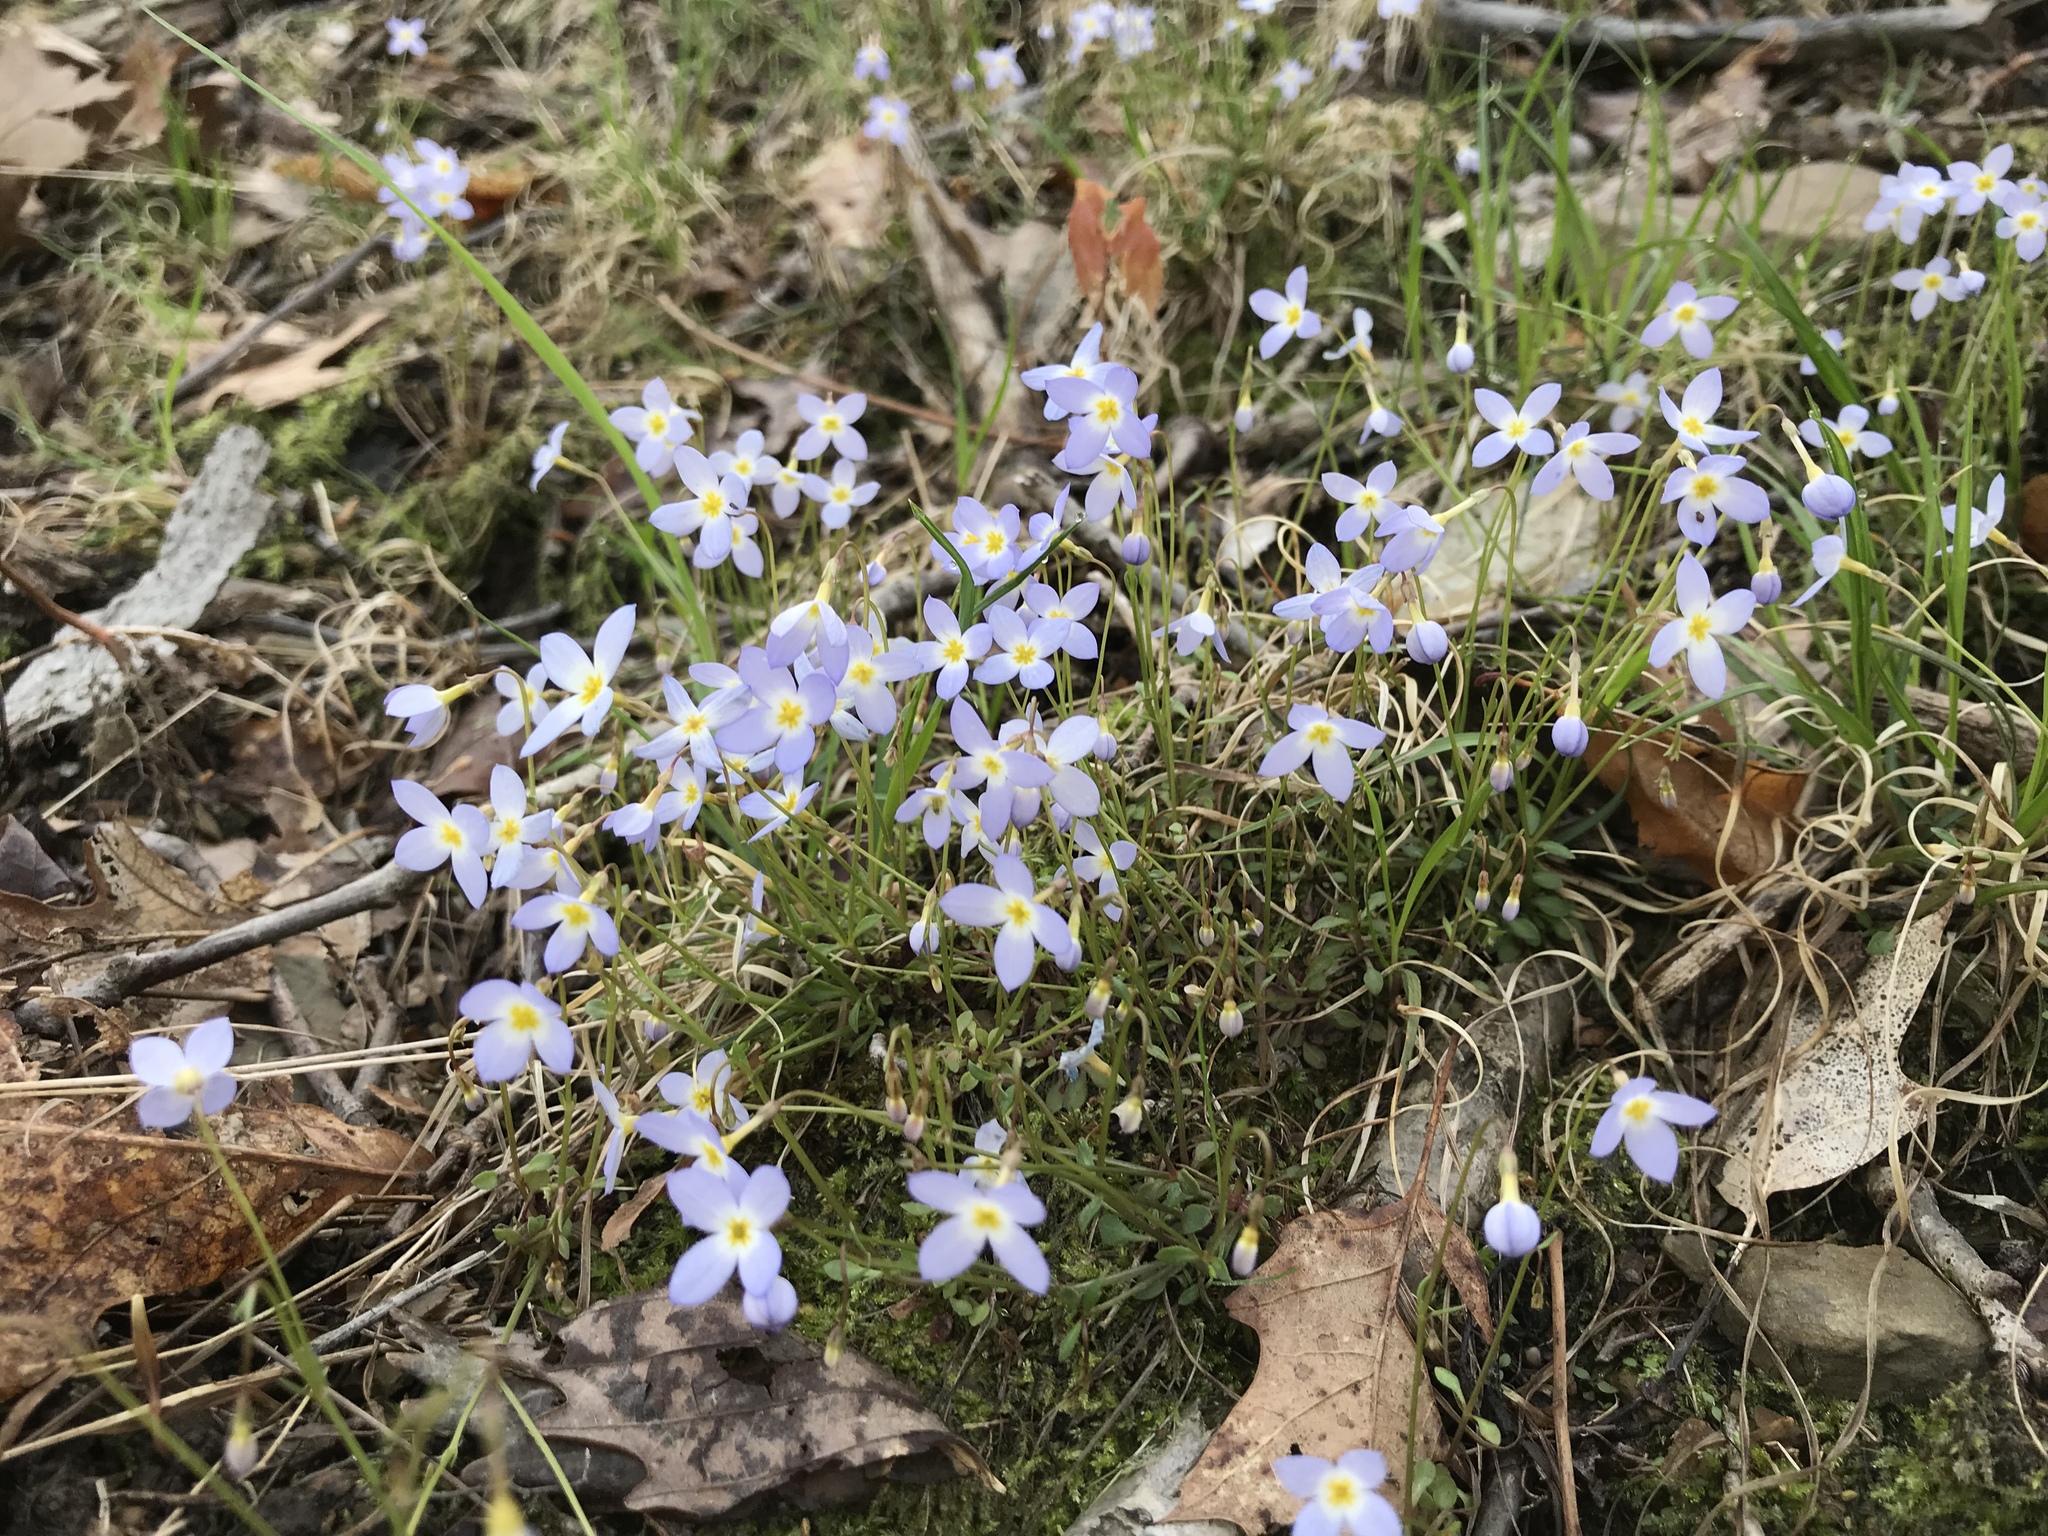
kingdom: Plantae
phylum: Tracheophyta
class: Magnoliopsida
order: Gentianales
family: Rubiaceae
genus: Houstonia
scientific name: Houstonia caerulea
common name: Bluets
